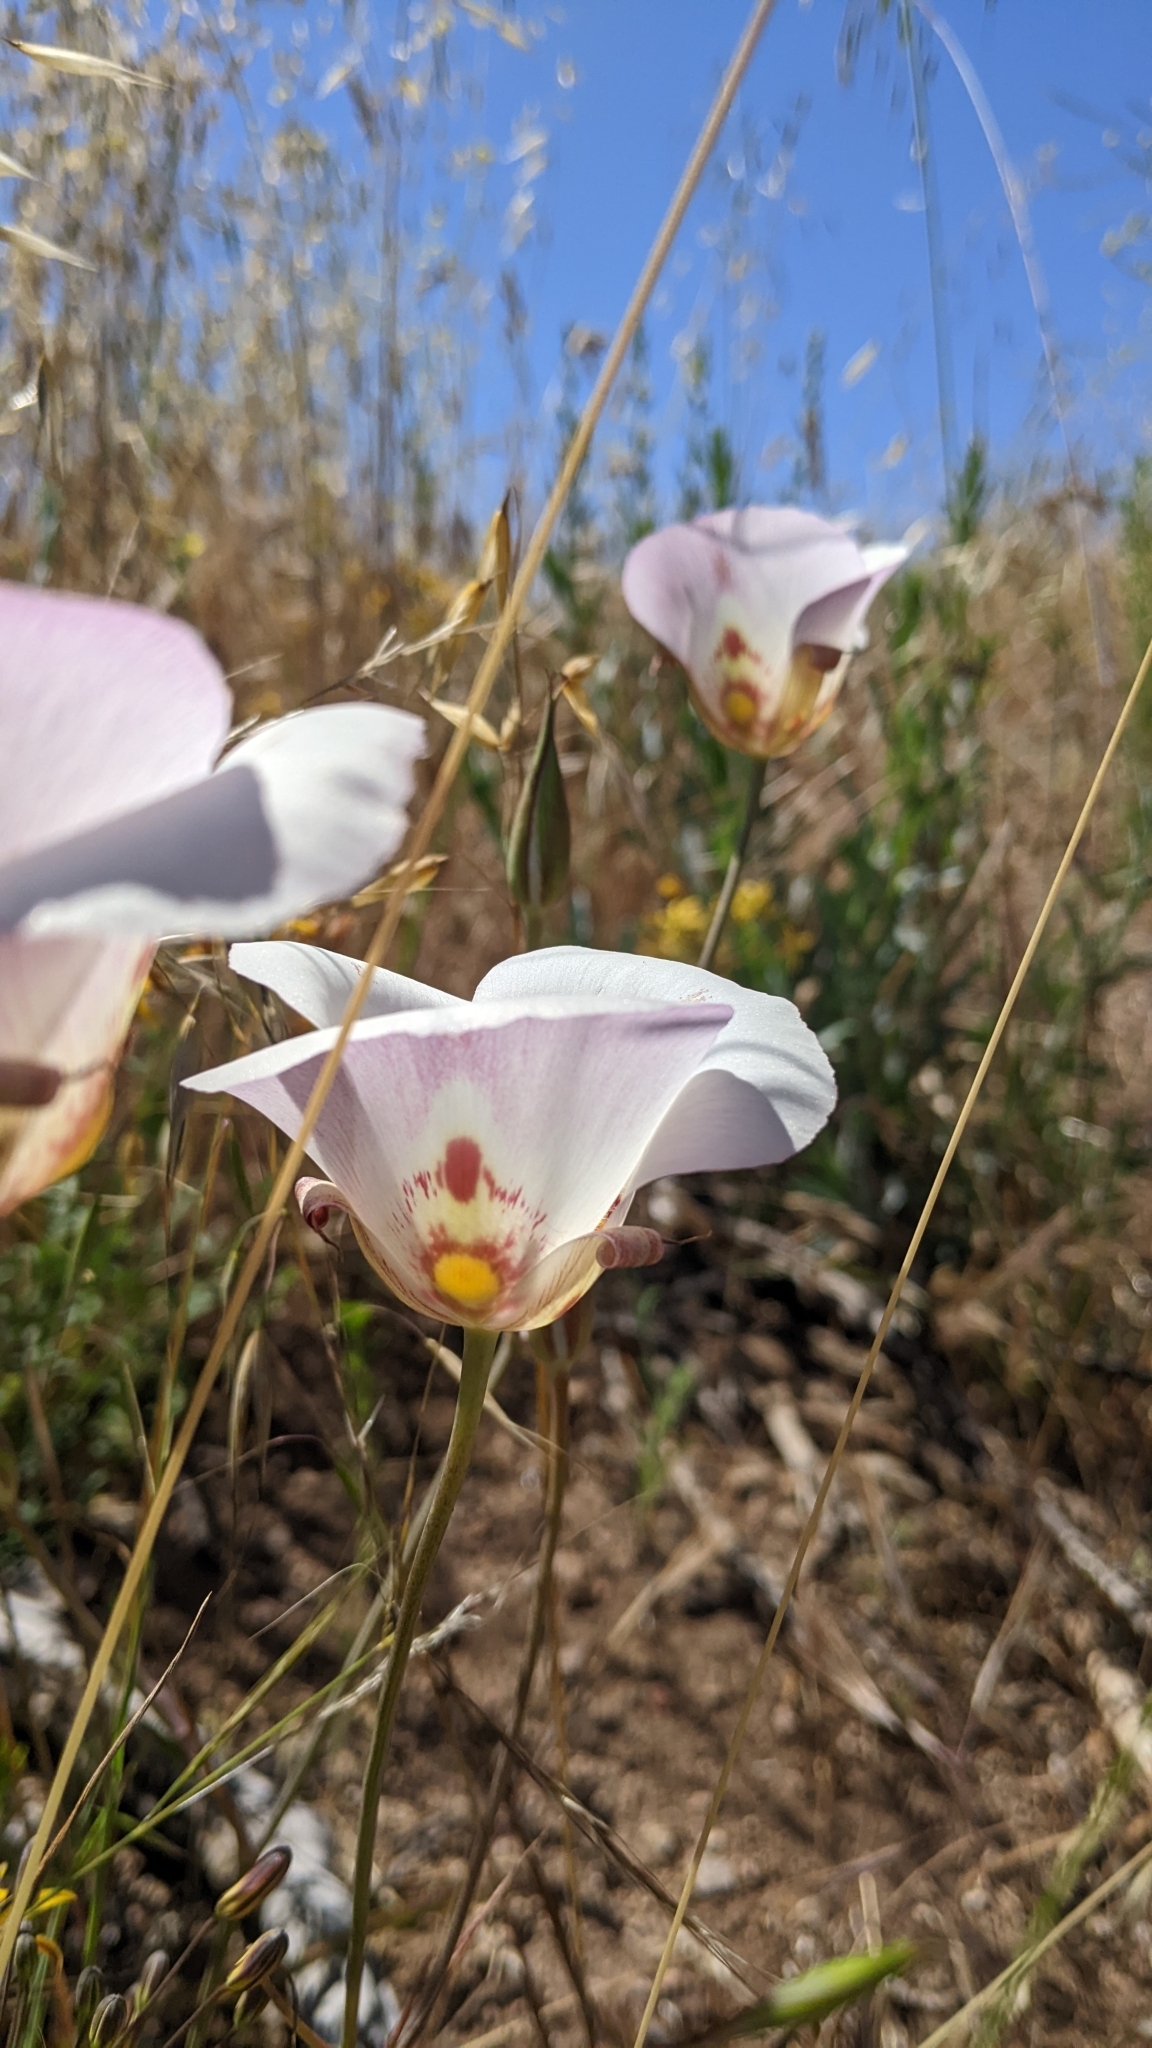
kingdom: Plantae
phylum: Tracheophyta
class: Liliopsida
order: Liliales
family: Liliaceae
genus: Calochortus
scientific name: Calochortus venustus
